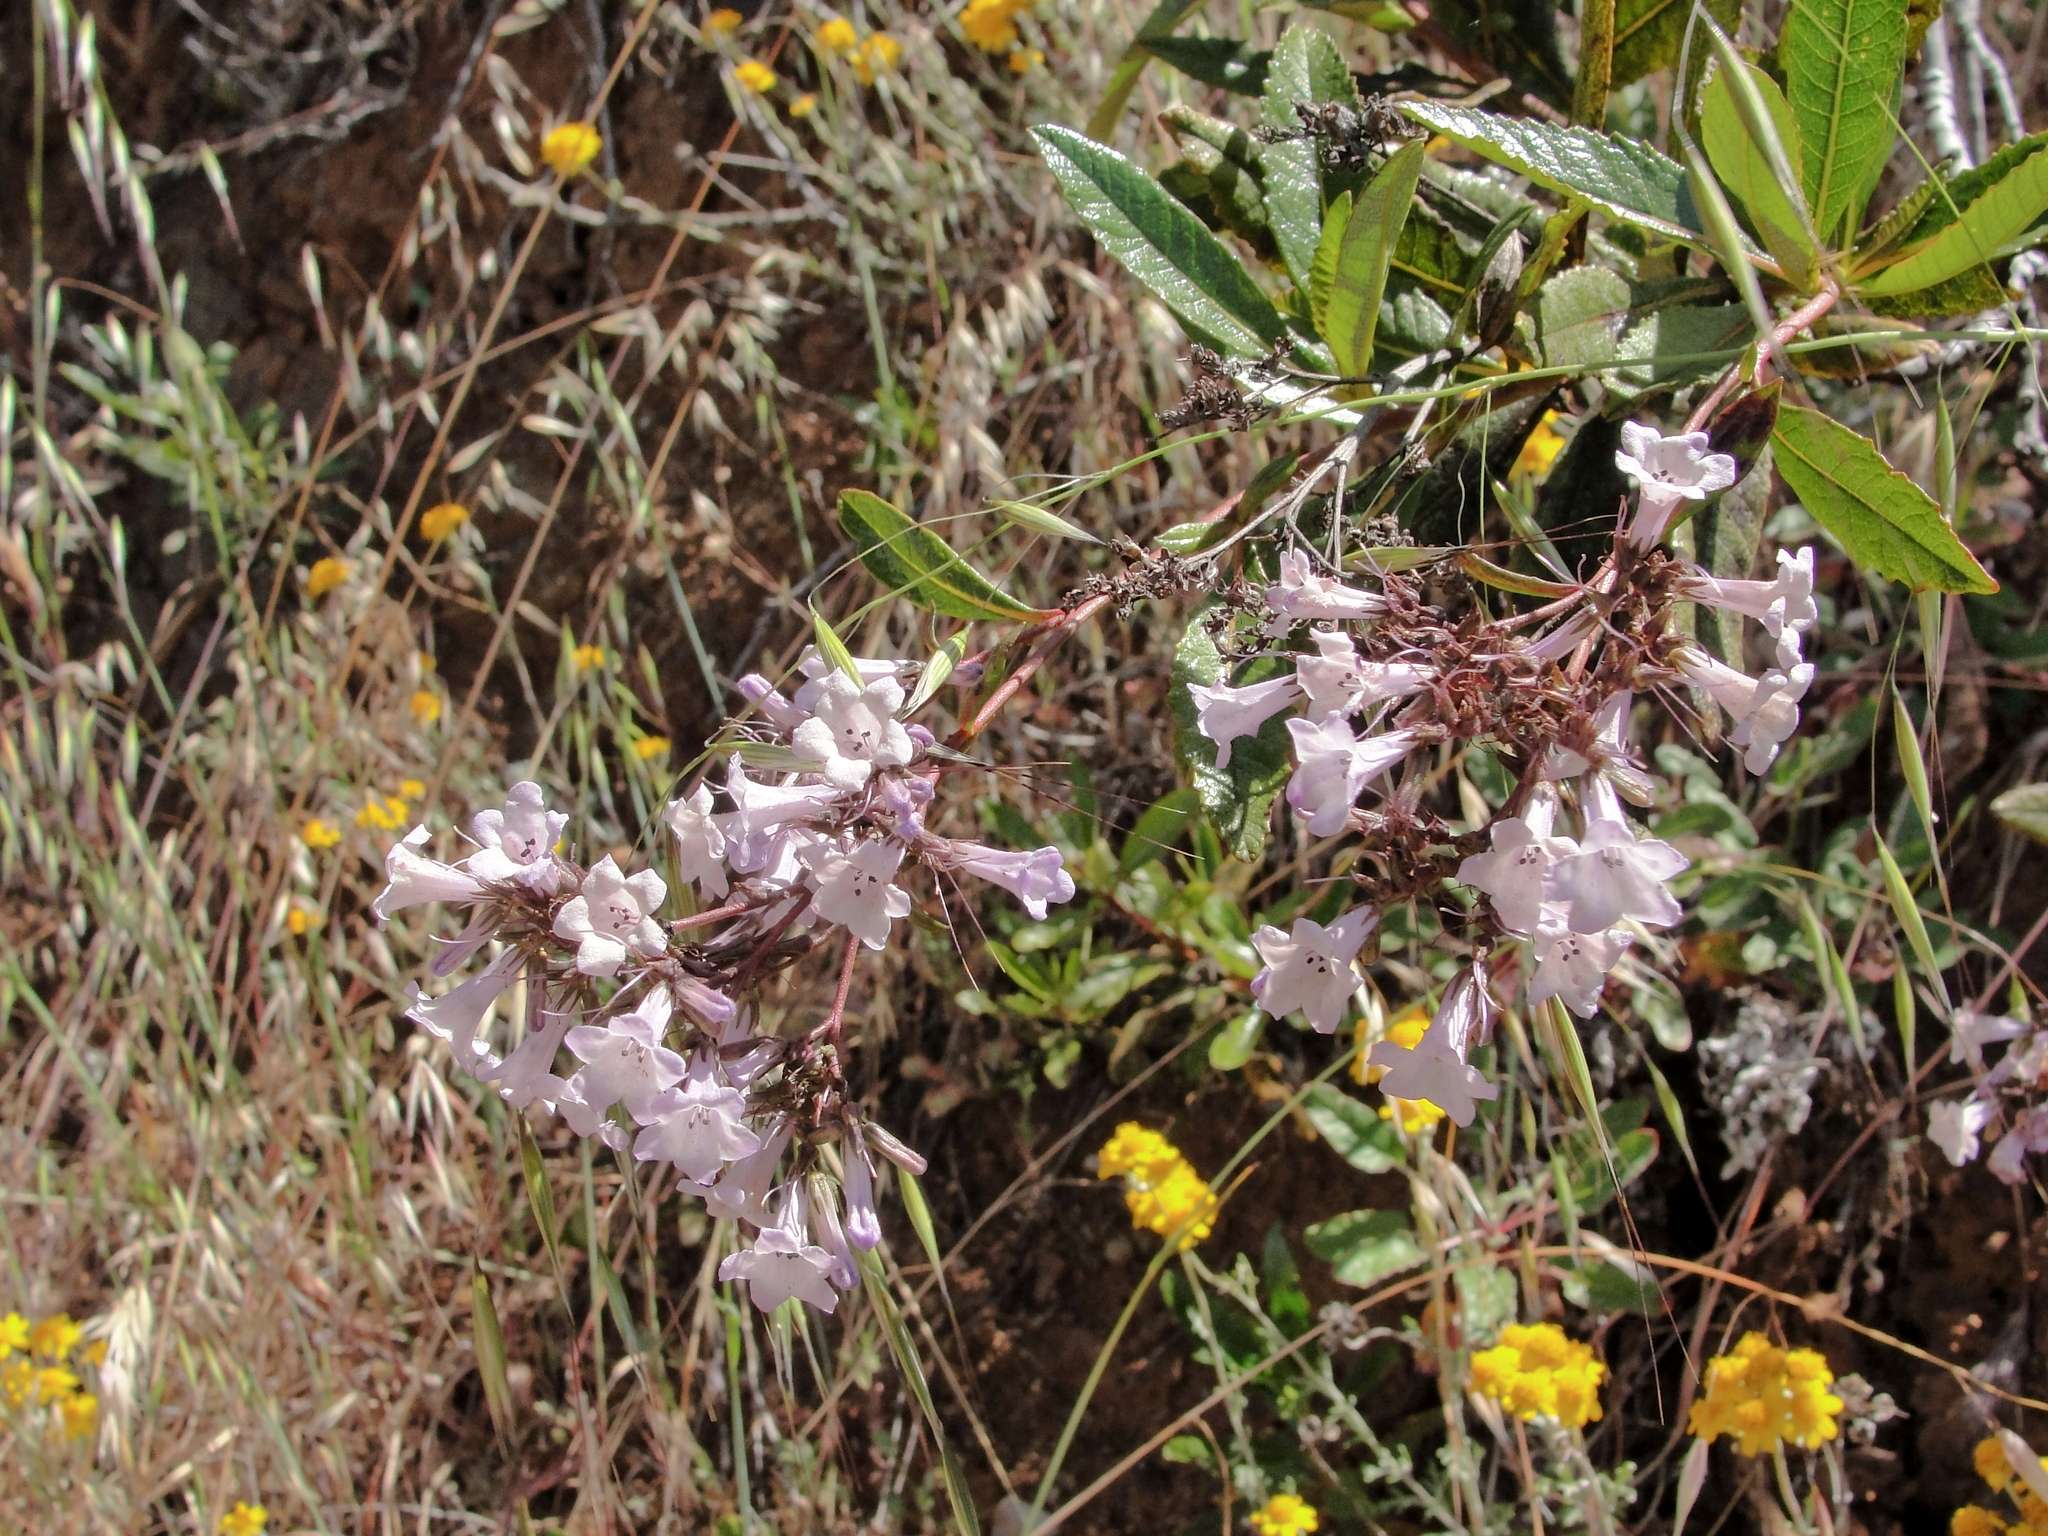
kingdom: Plantae
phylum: Tracheophyta
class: Magnoliopsida
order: Boraginales
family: Namaceae
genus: Eriodictyon
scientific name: Eriodictyon californicum
